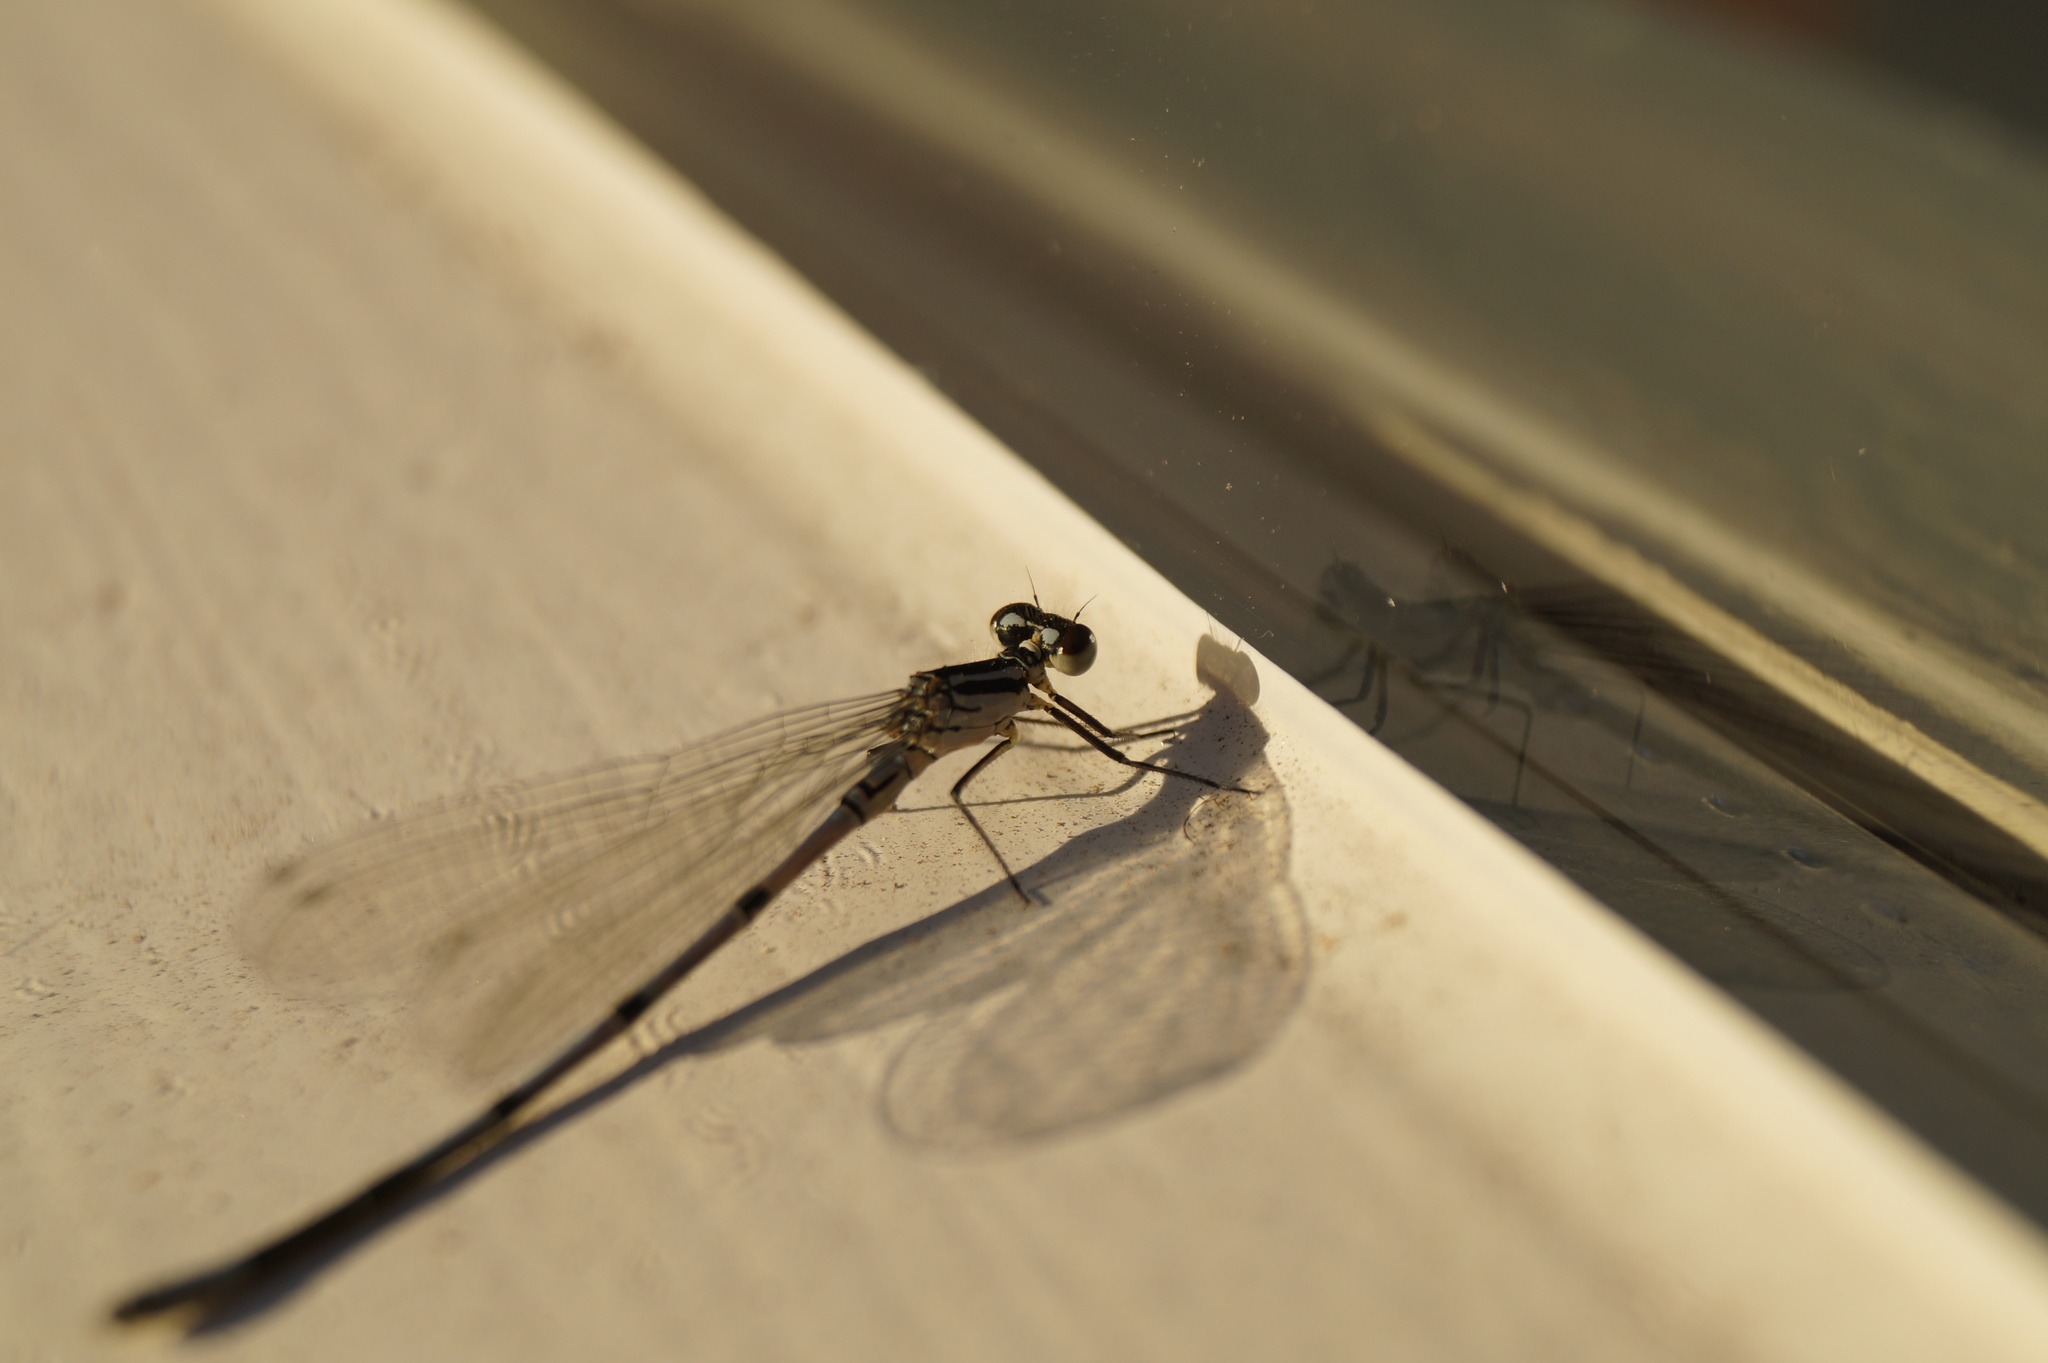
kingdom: Animalia
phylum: Arthropoda
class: Insecta
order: Odonata
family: Coenagrionidae
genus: Coenagrion
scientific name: Coenagrion puella
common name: Azure damselfly
